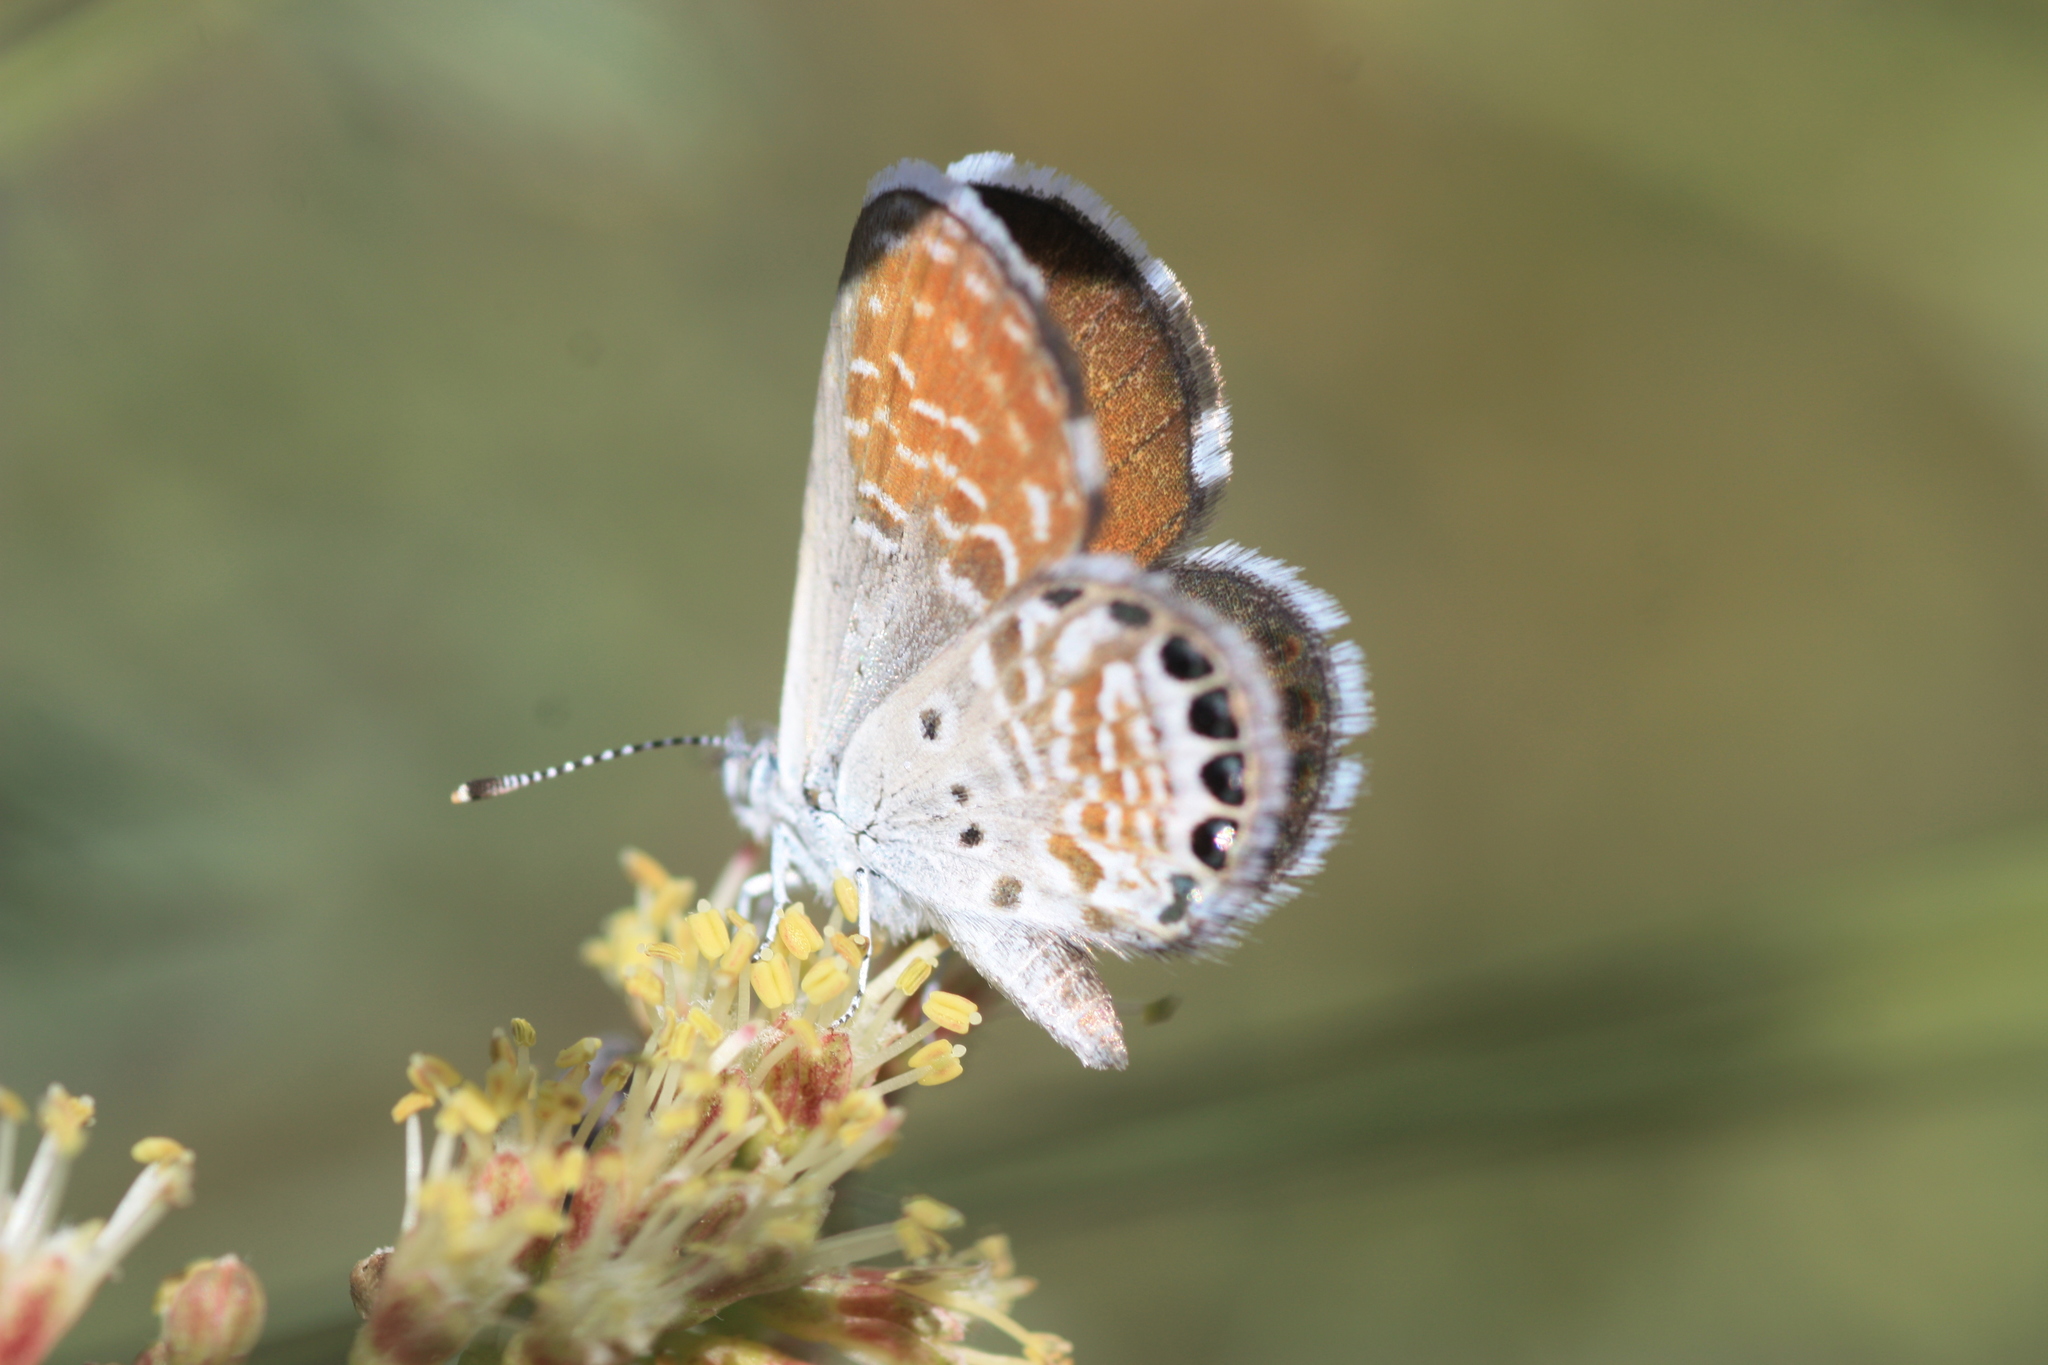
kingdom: Animalia
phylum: Arthropoda
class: Insecta
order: Lepidoptera
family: Lycaenidae
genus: Brephidium
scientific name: Brephidium exilis
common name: Pygmy blue
